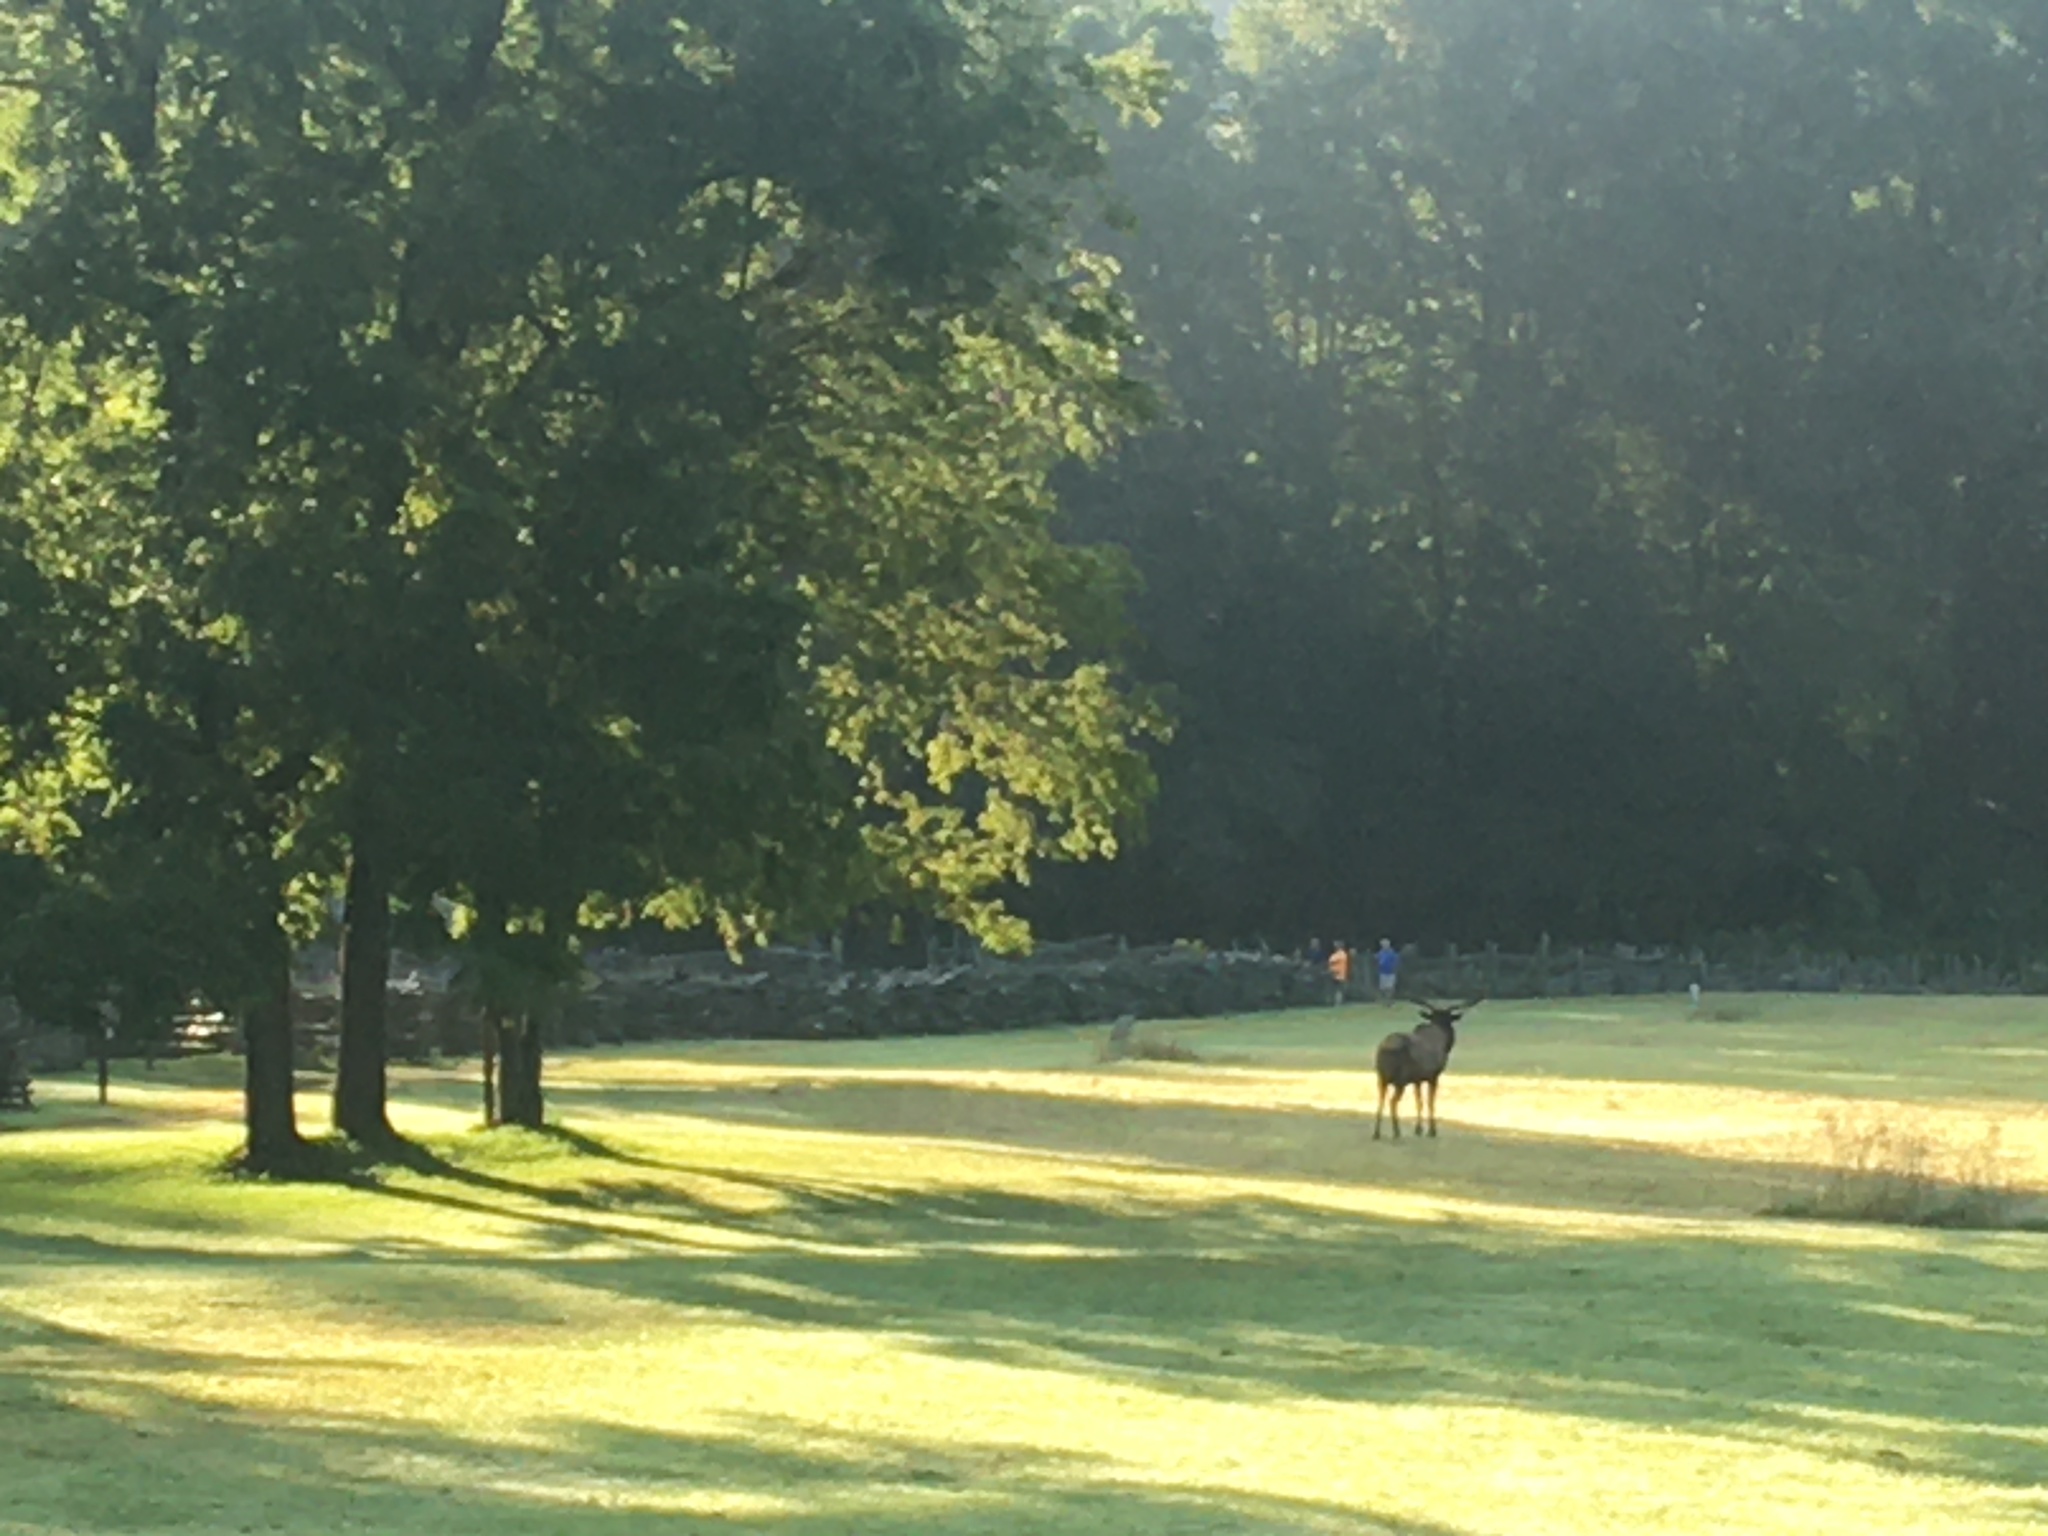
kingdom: Animalia
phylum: Chordata
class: Mammalia
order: Artiodactyla
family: Cervidae
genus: Cervus
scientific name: Cervus elaphus
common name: Red deer
